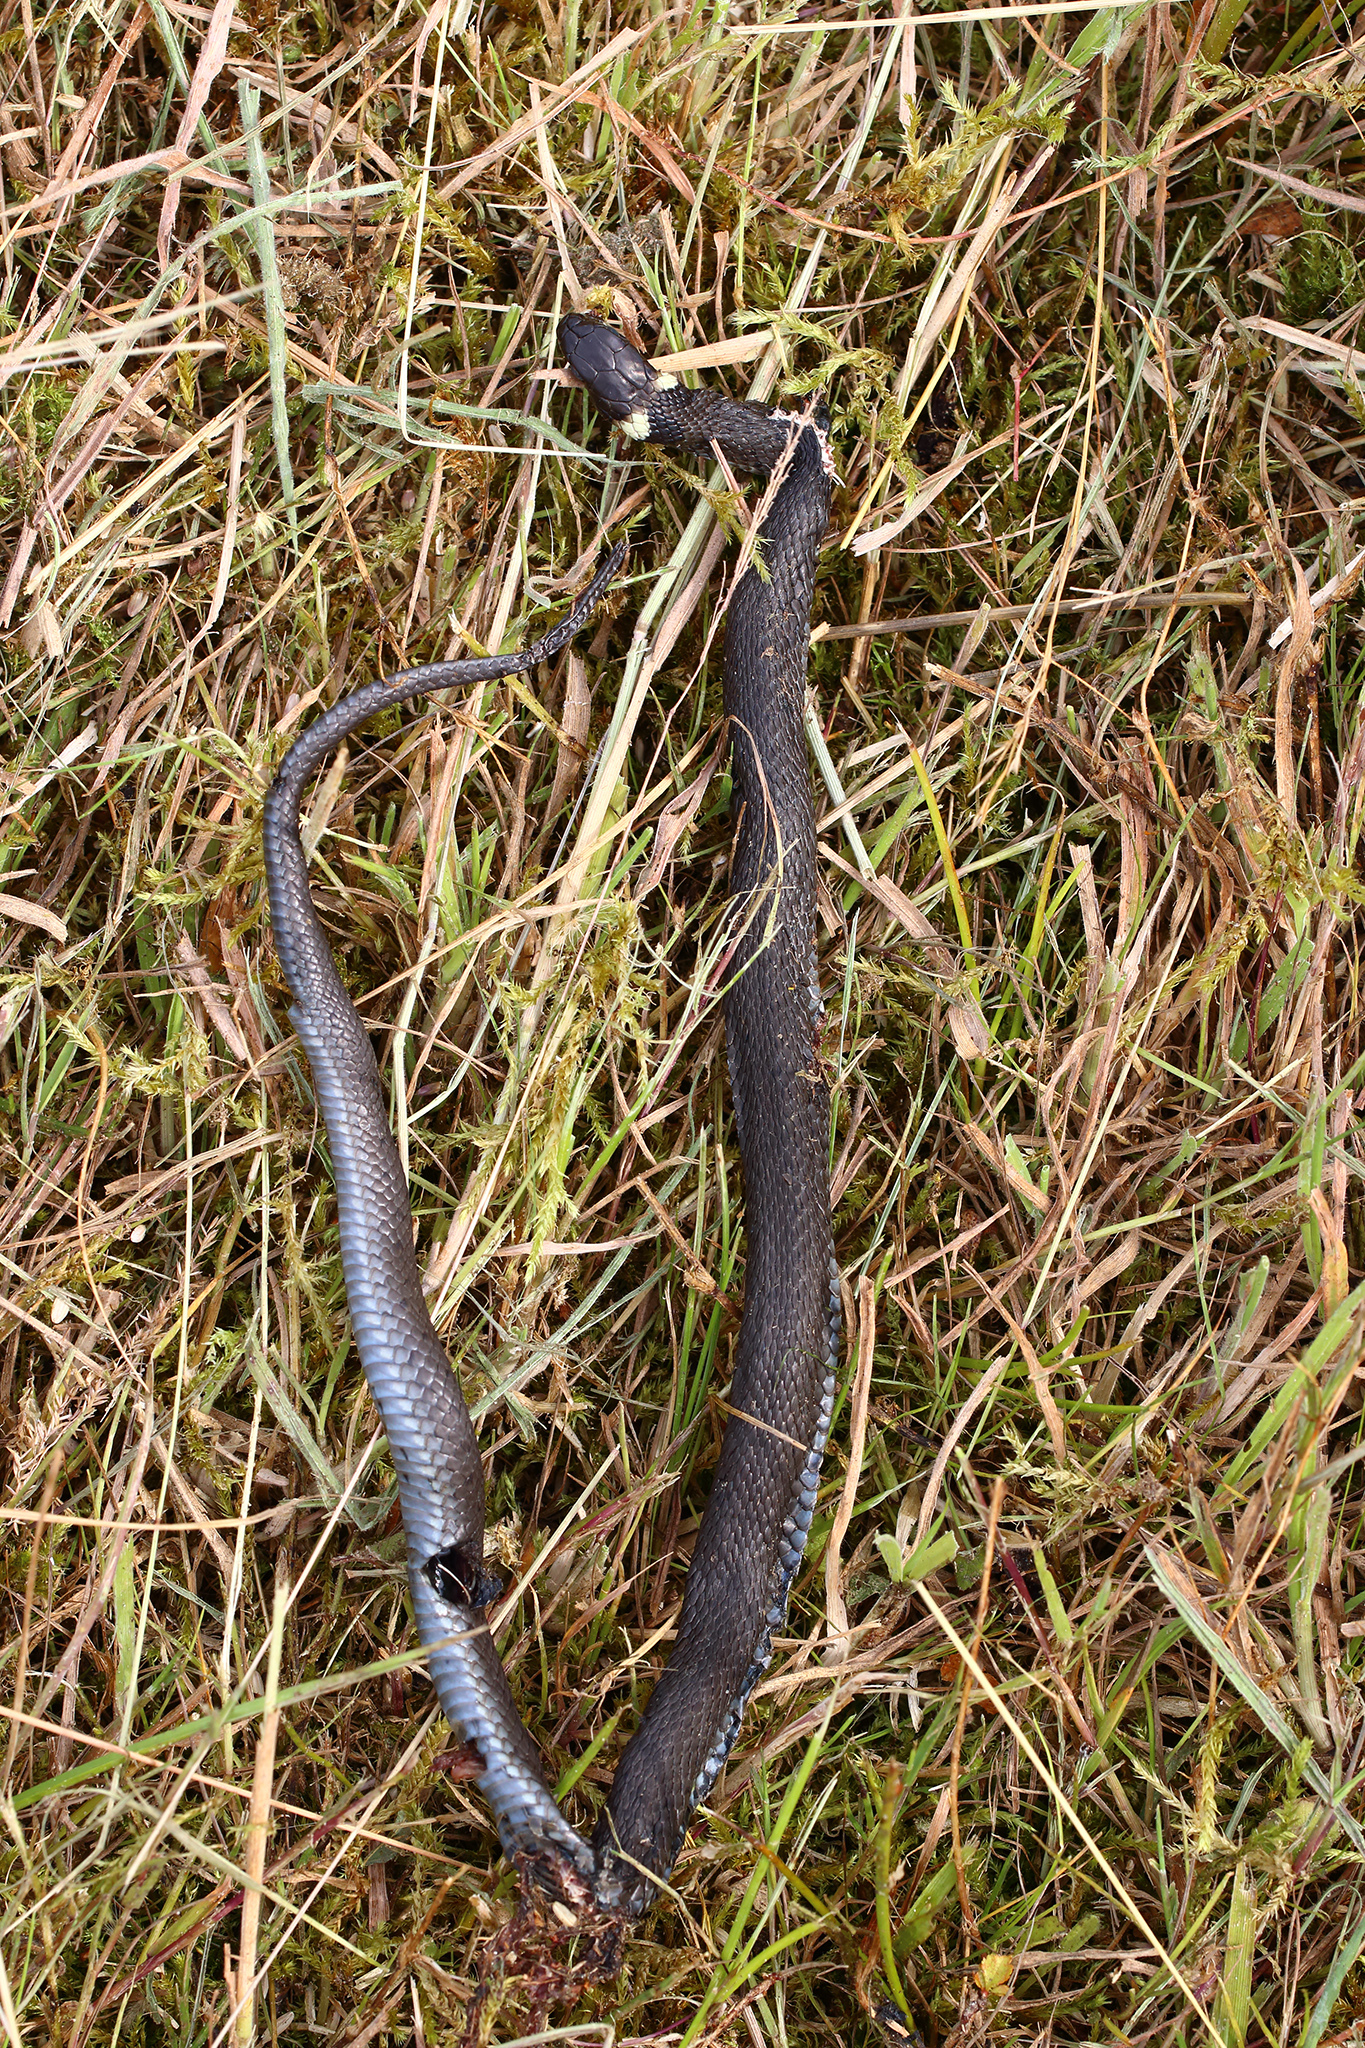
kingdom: Animalia
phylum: Chordata
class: Squamata
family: Colubridae
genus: Natrix
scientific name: Natrix natrix
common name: Grass snake
